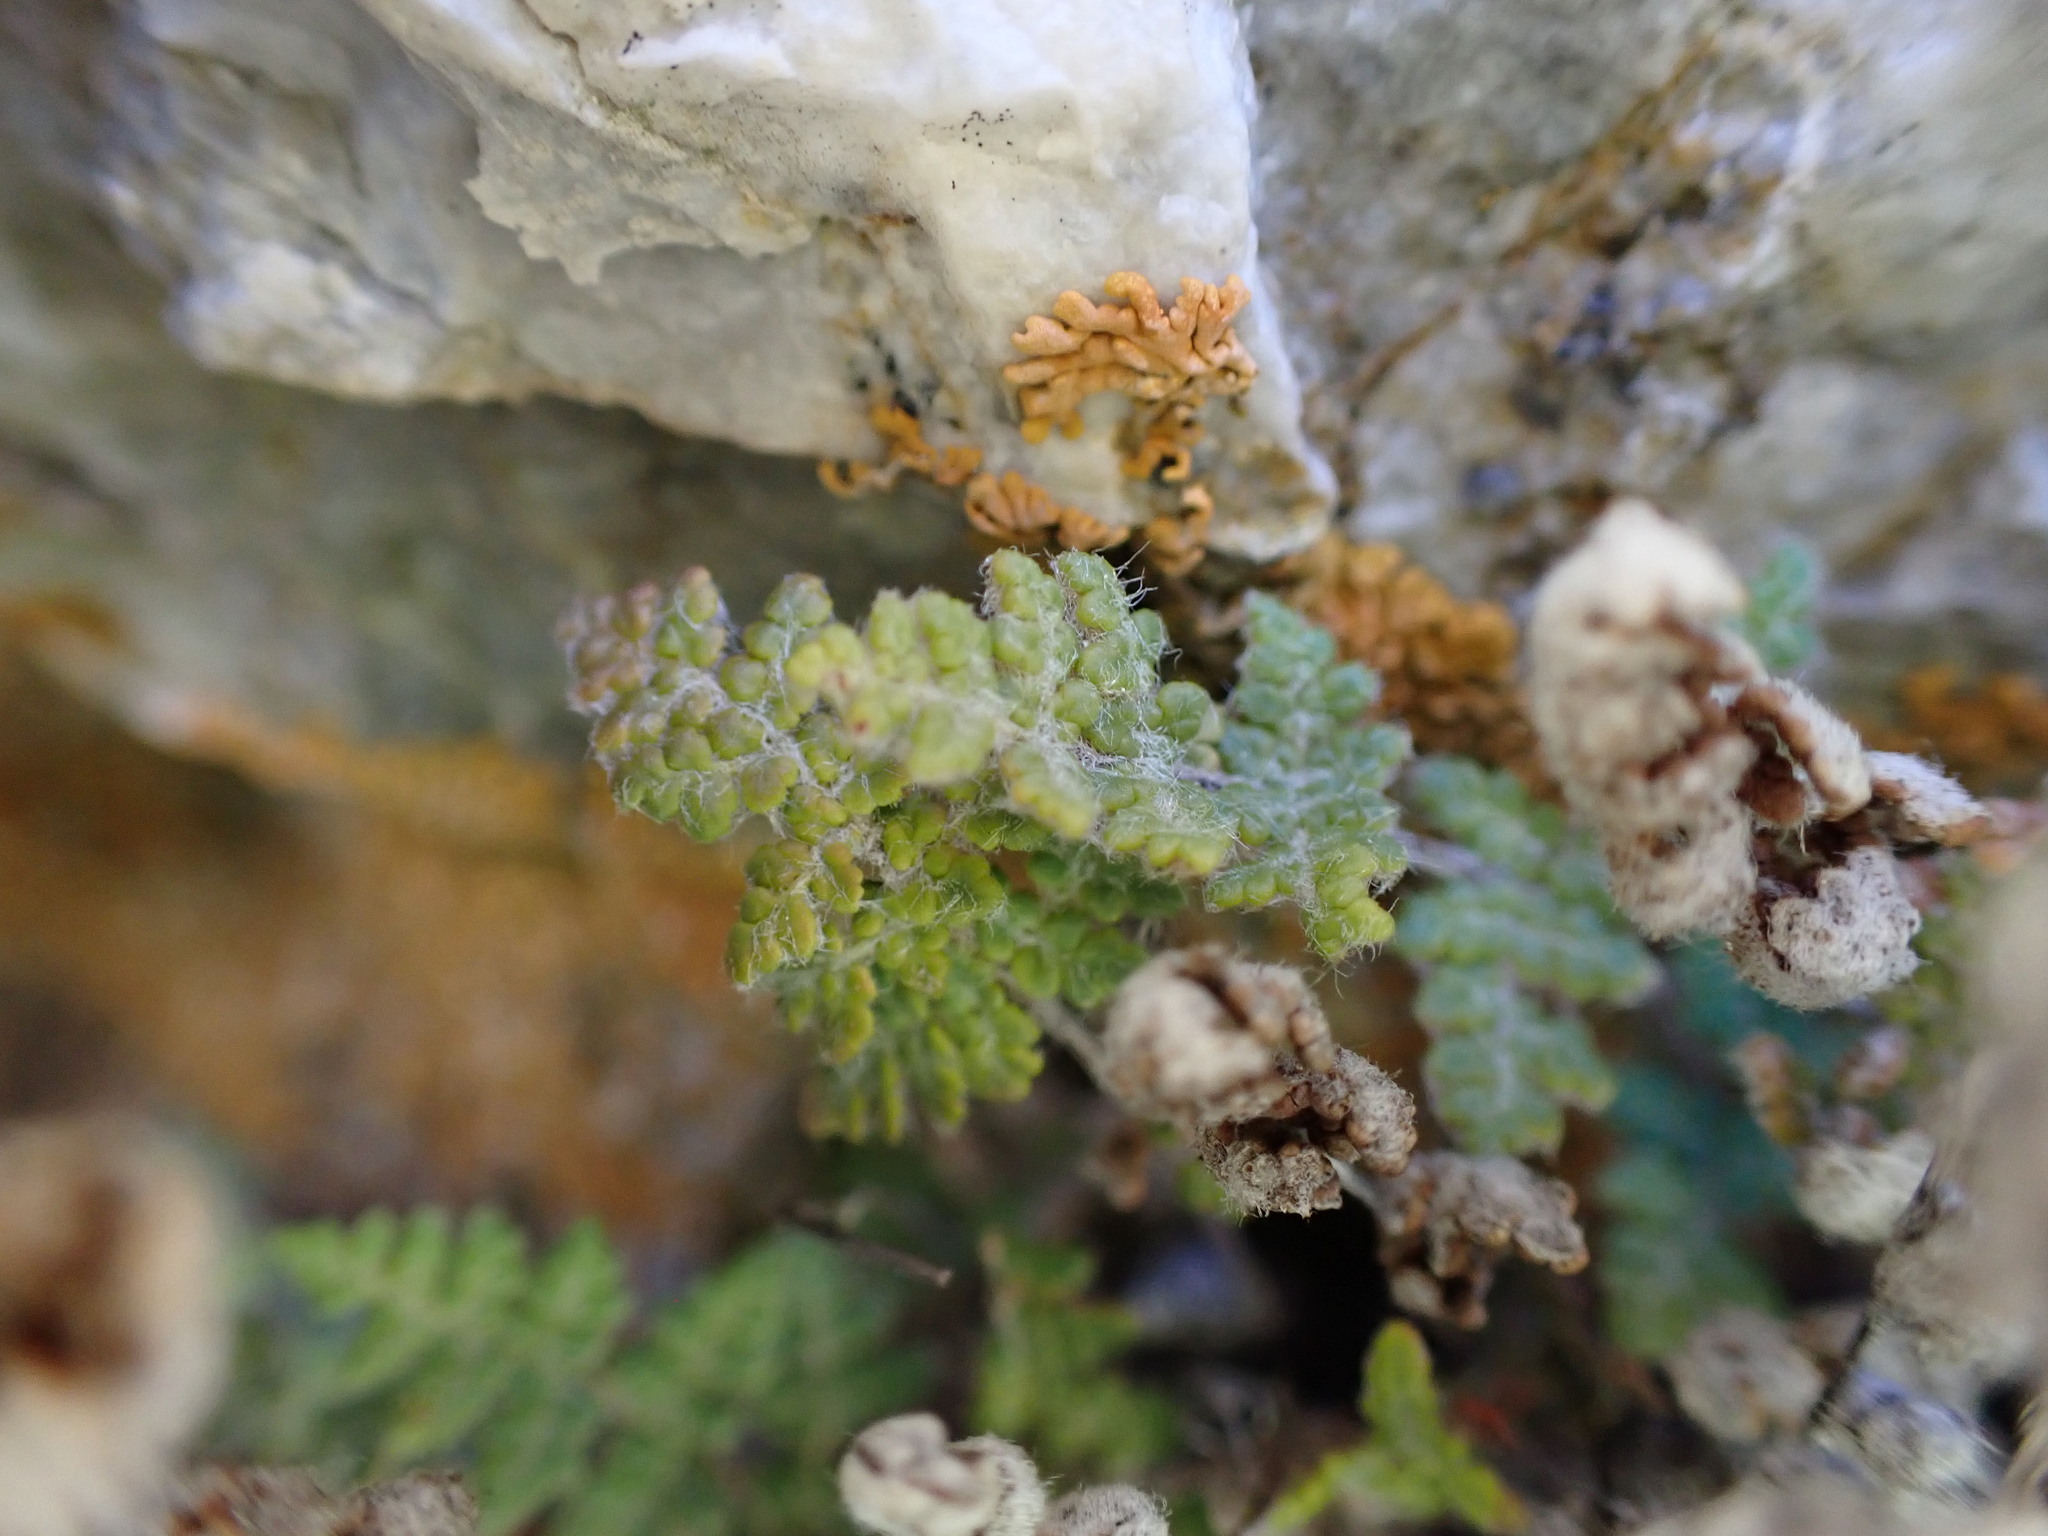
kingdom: Plantae
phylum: Tracheophyta
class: Polypodiopsida
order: Polypodiales
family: Pteridaceae
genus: Myriopteris
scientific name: Myriopteris gracilis
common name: Fee's lip fern
